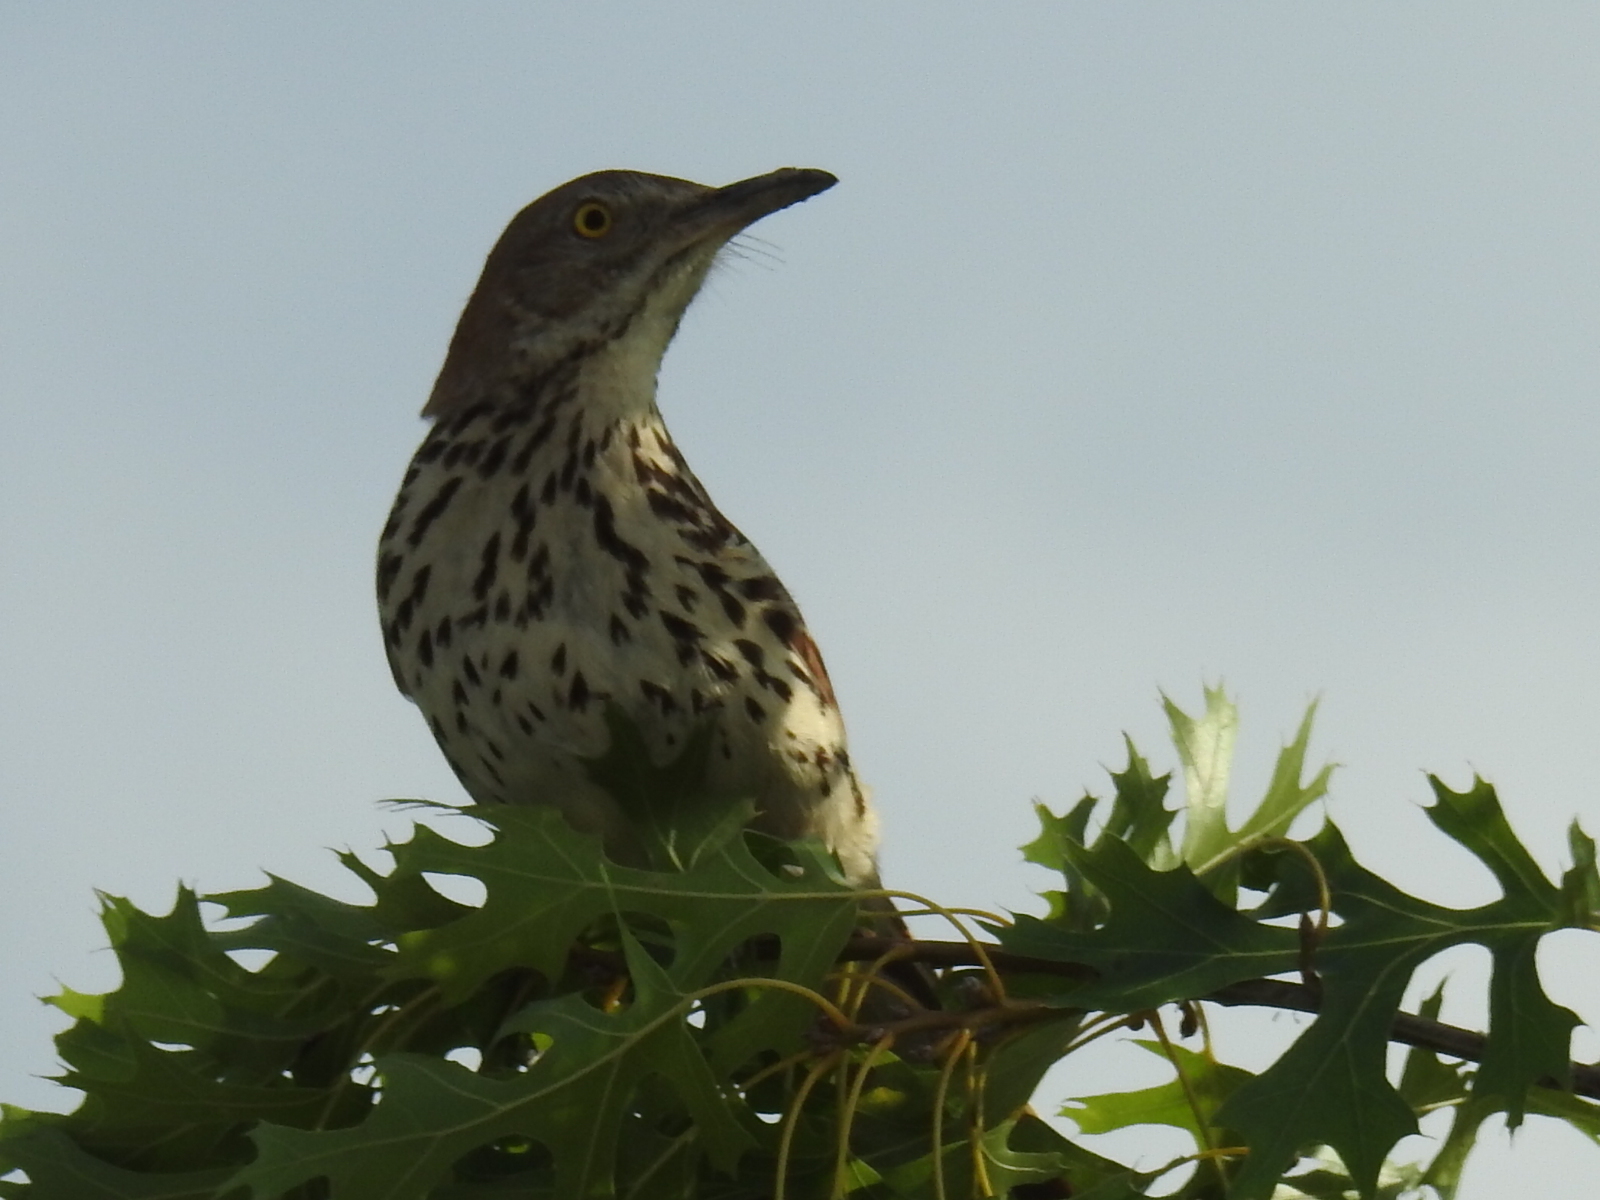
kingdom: Animalia
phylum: Chordata
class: Aves
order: Passeriformes
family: Mimidae
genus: Toxostoma
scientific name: Toxostoma rufum
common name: Brown thrasher
